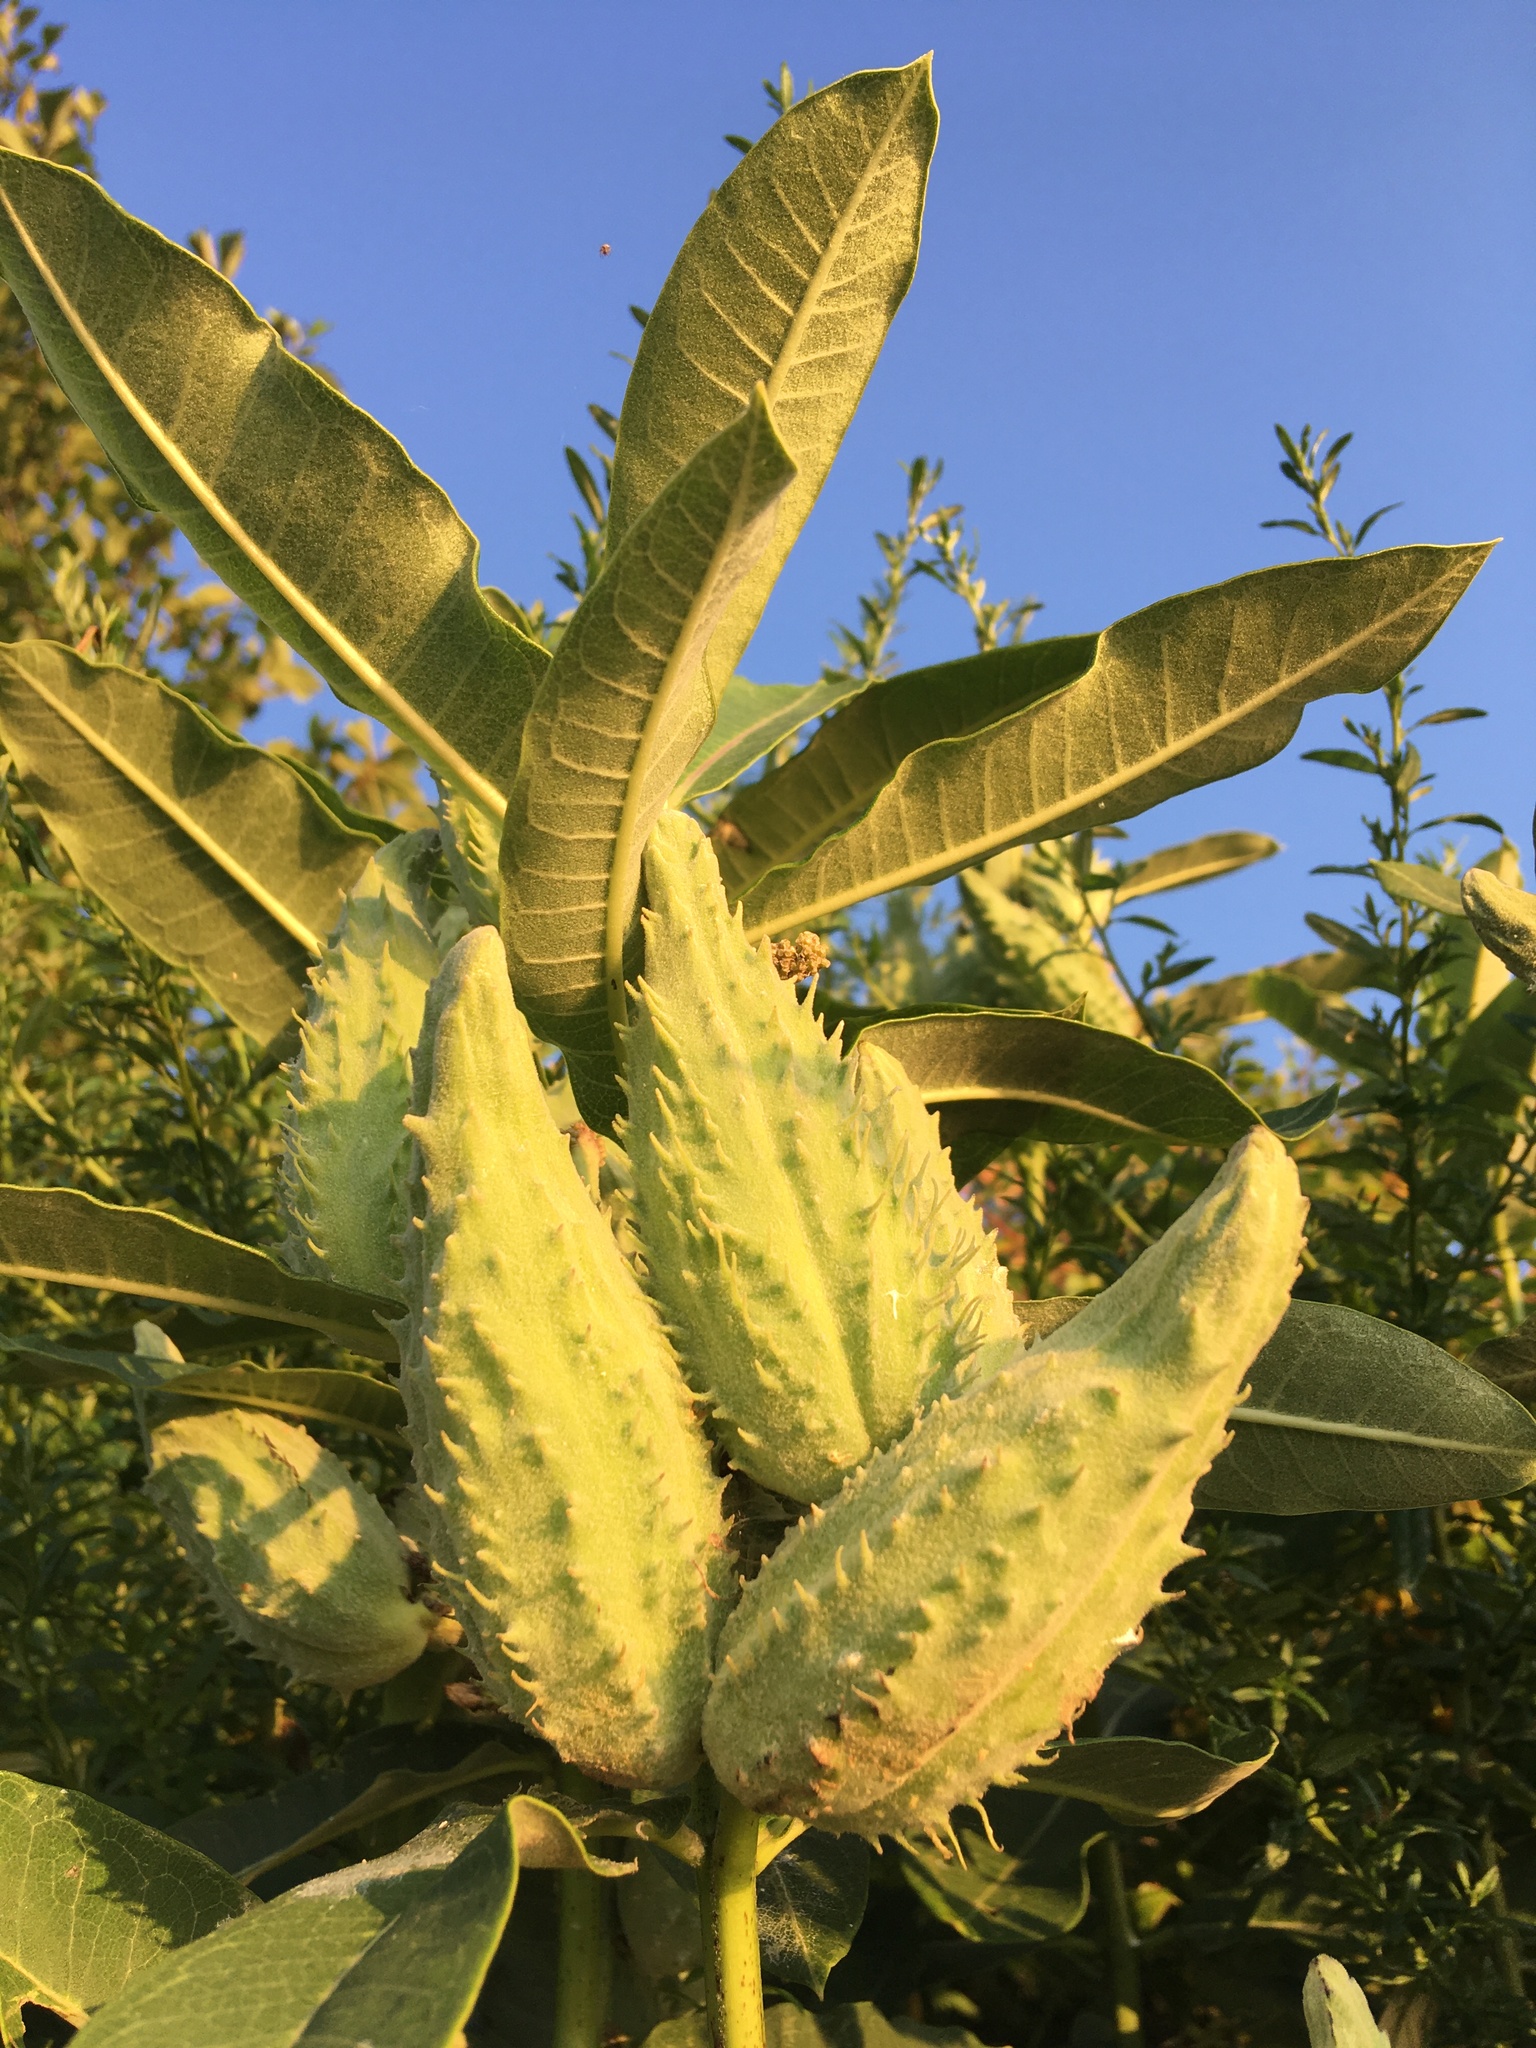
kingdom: Plantae
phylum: Tracheophyta
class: Magnoliopsida
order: Gentianales
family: Apocynaceae
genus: Asclepias
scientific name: Asclepias syriaca
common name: Common milkweed
